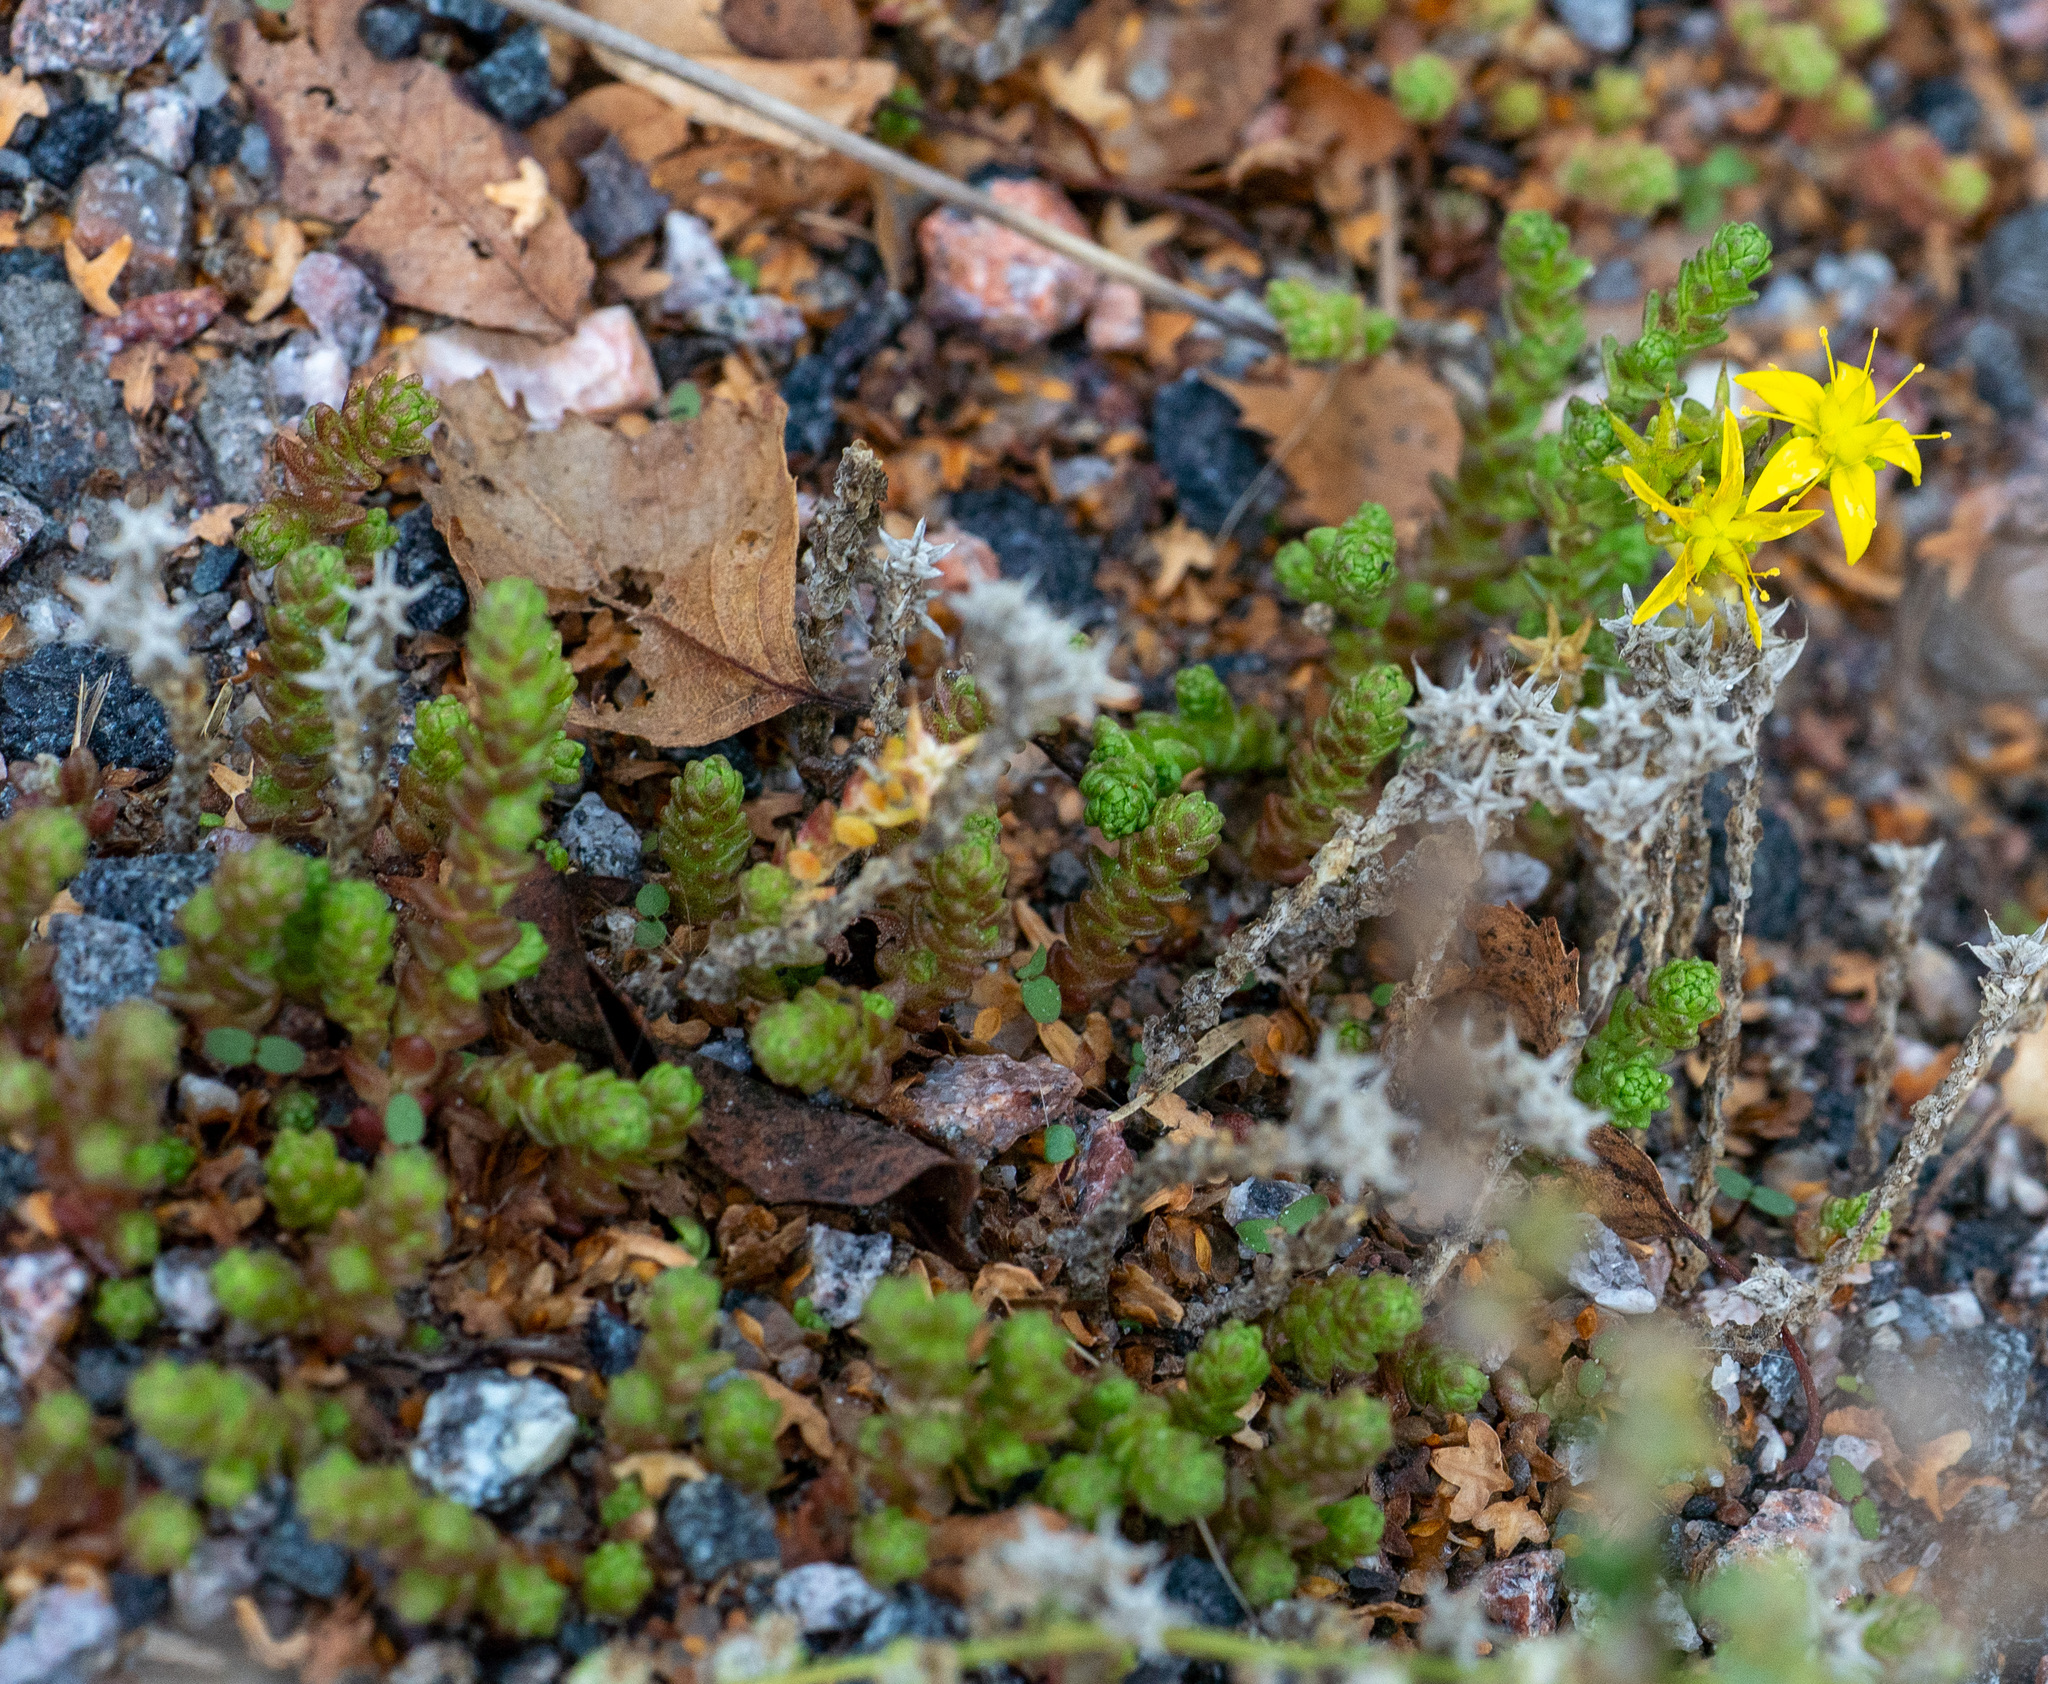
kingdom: Plantae
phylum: Tracheophyta
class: Magnoliopsida
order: Saxifragales
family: Crassulaceae
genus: Sedum
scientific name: Sedum acre
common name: Biting stonecrop
